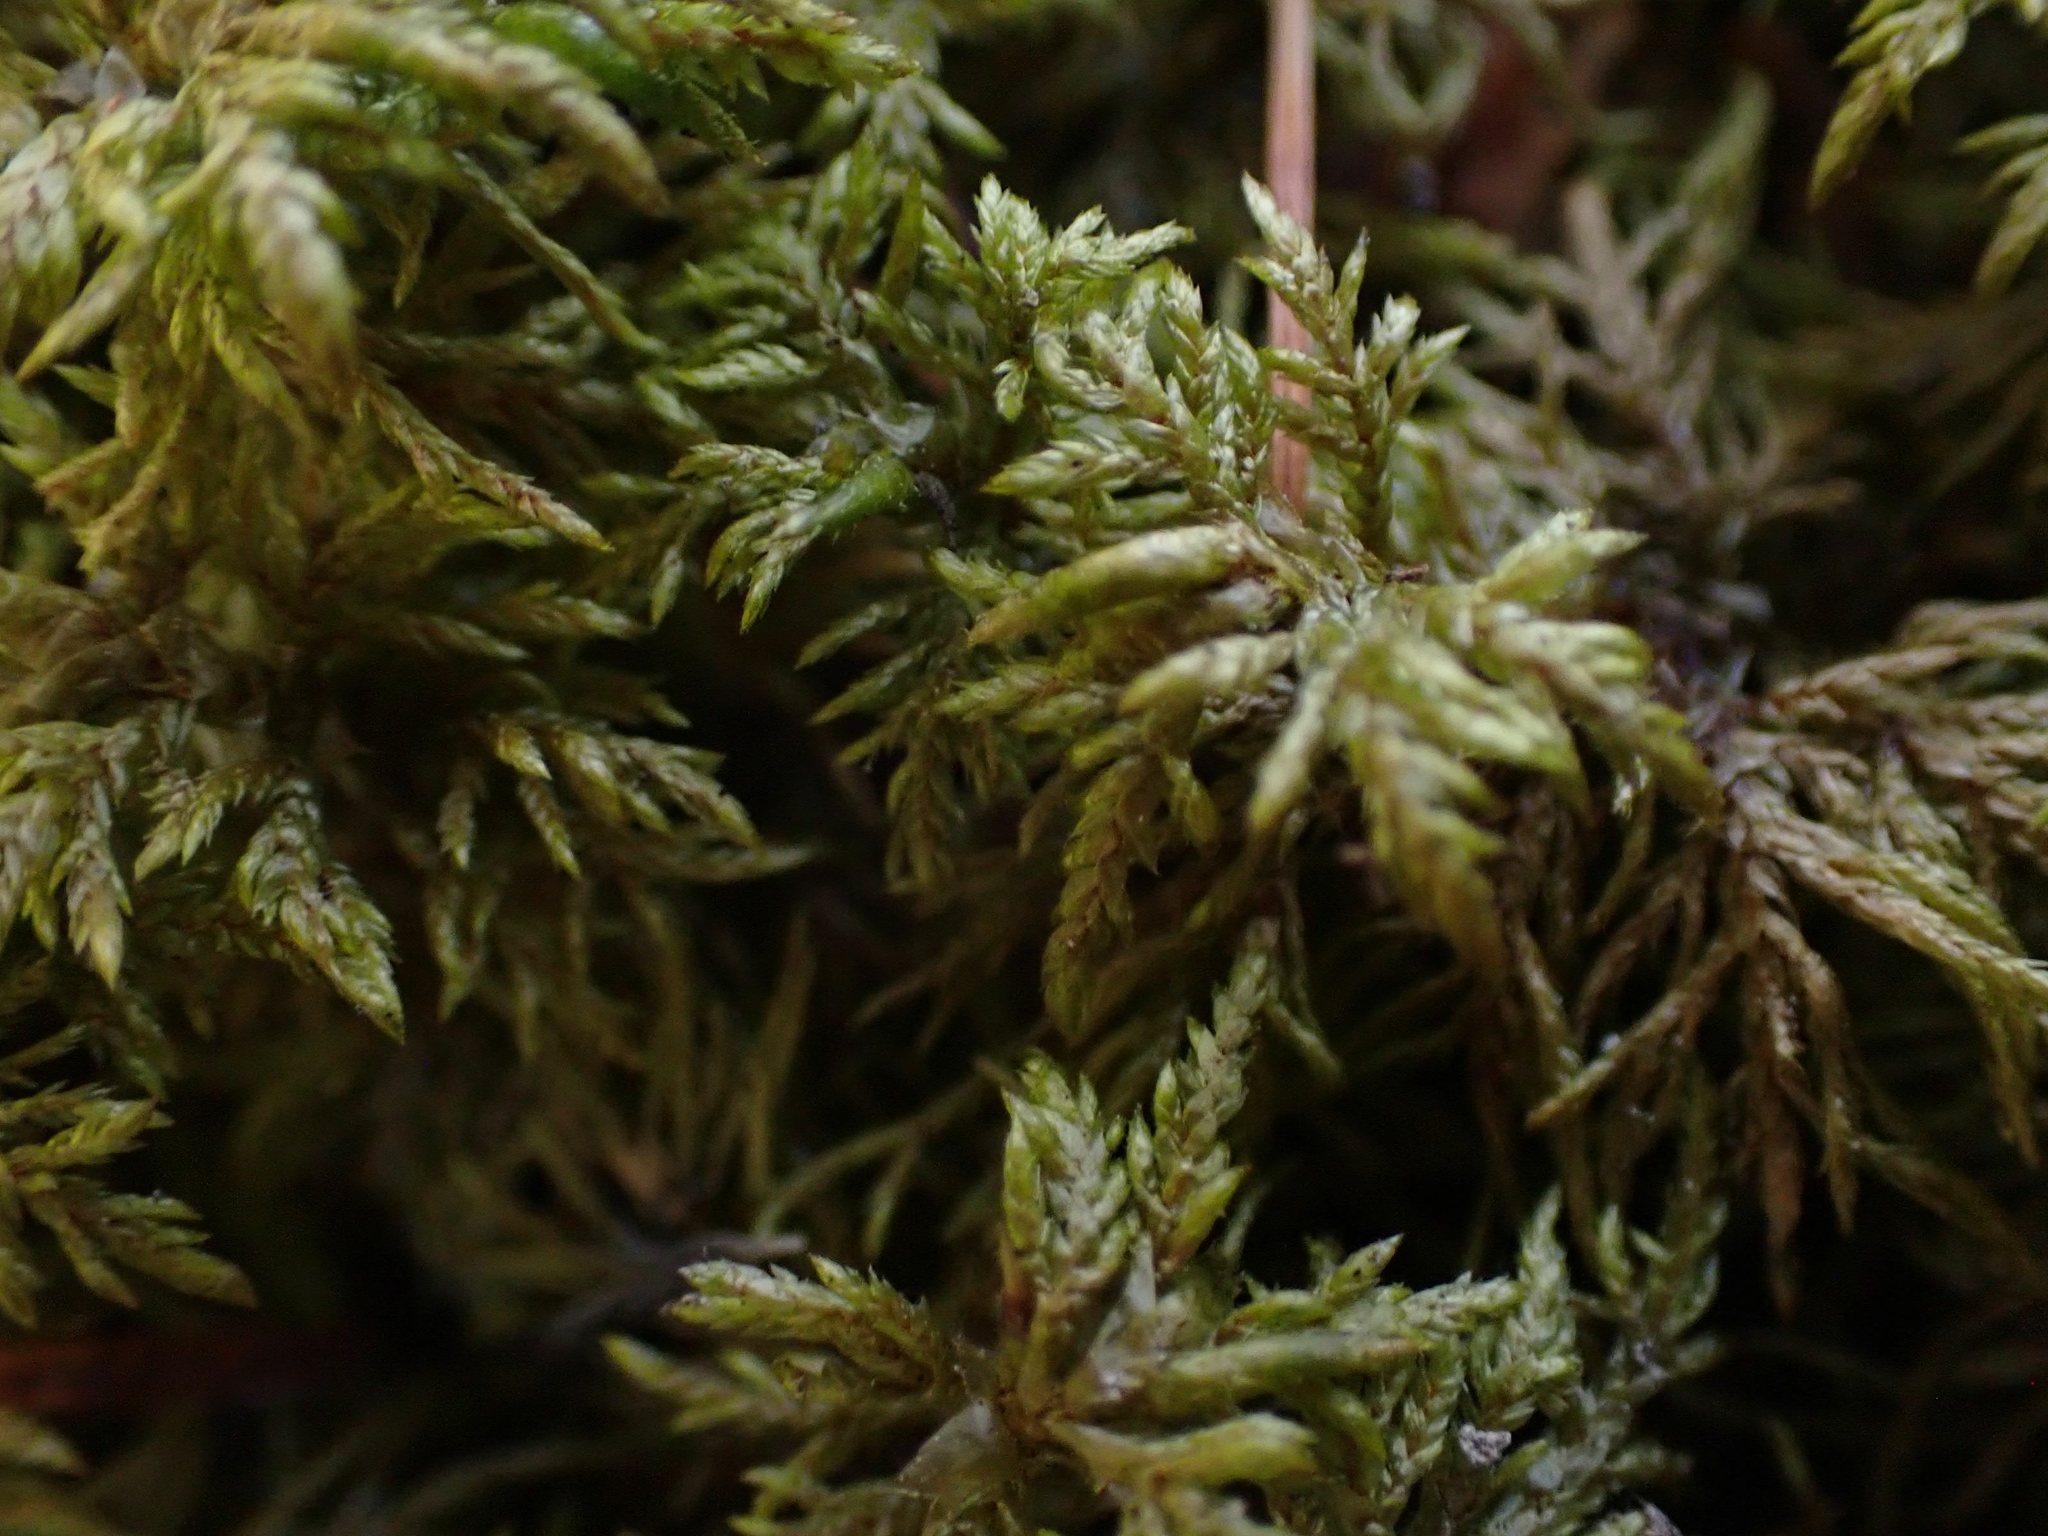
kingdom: Plantae
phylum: Bryophyta
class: Bryopsida
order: Hypnales
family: Hylocomiaceae
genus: Hylocomium
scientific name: Hylocomium splendens
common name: Stairstep moss
